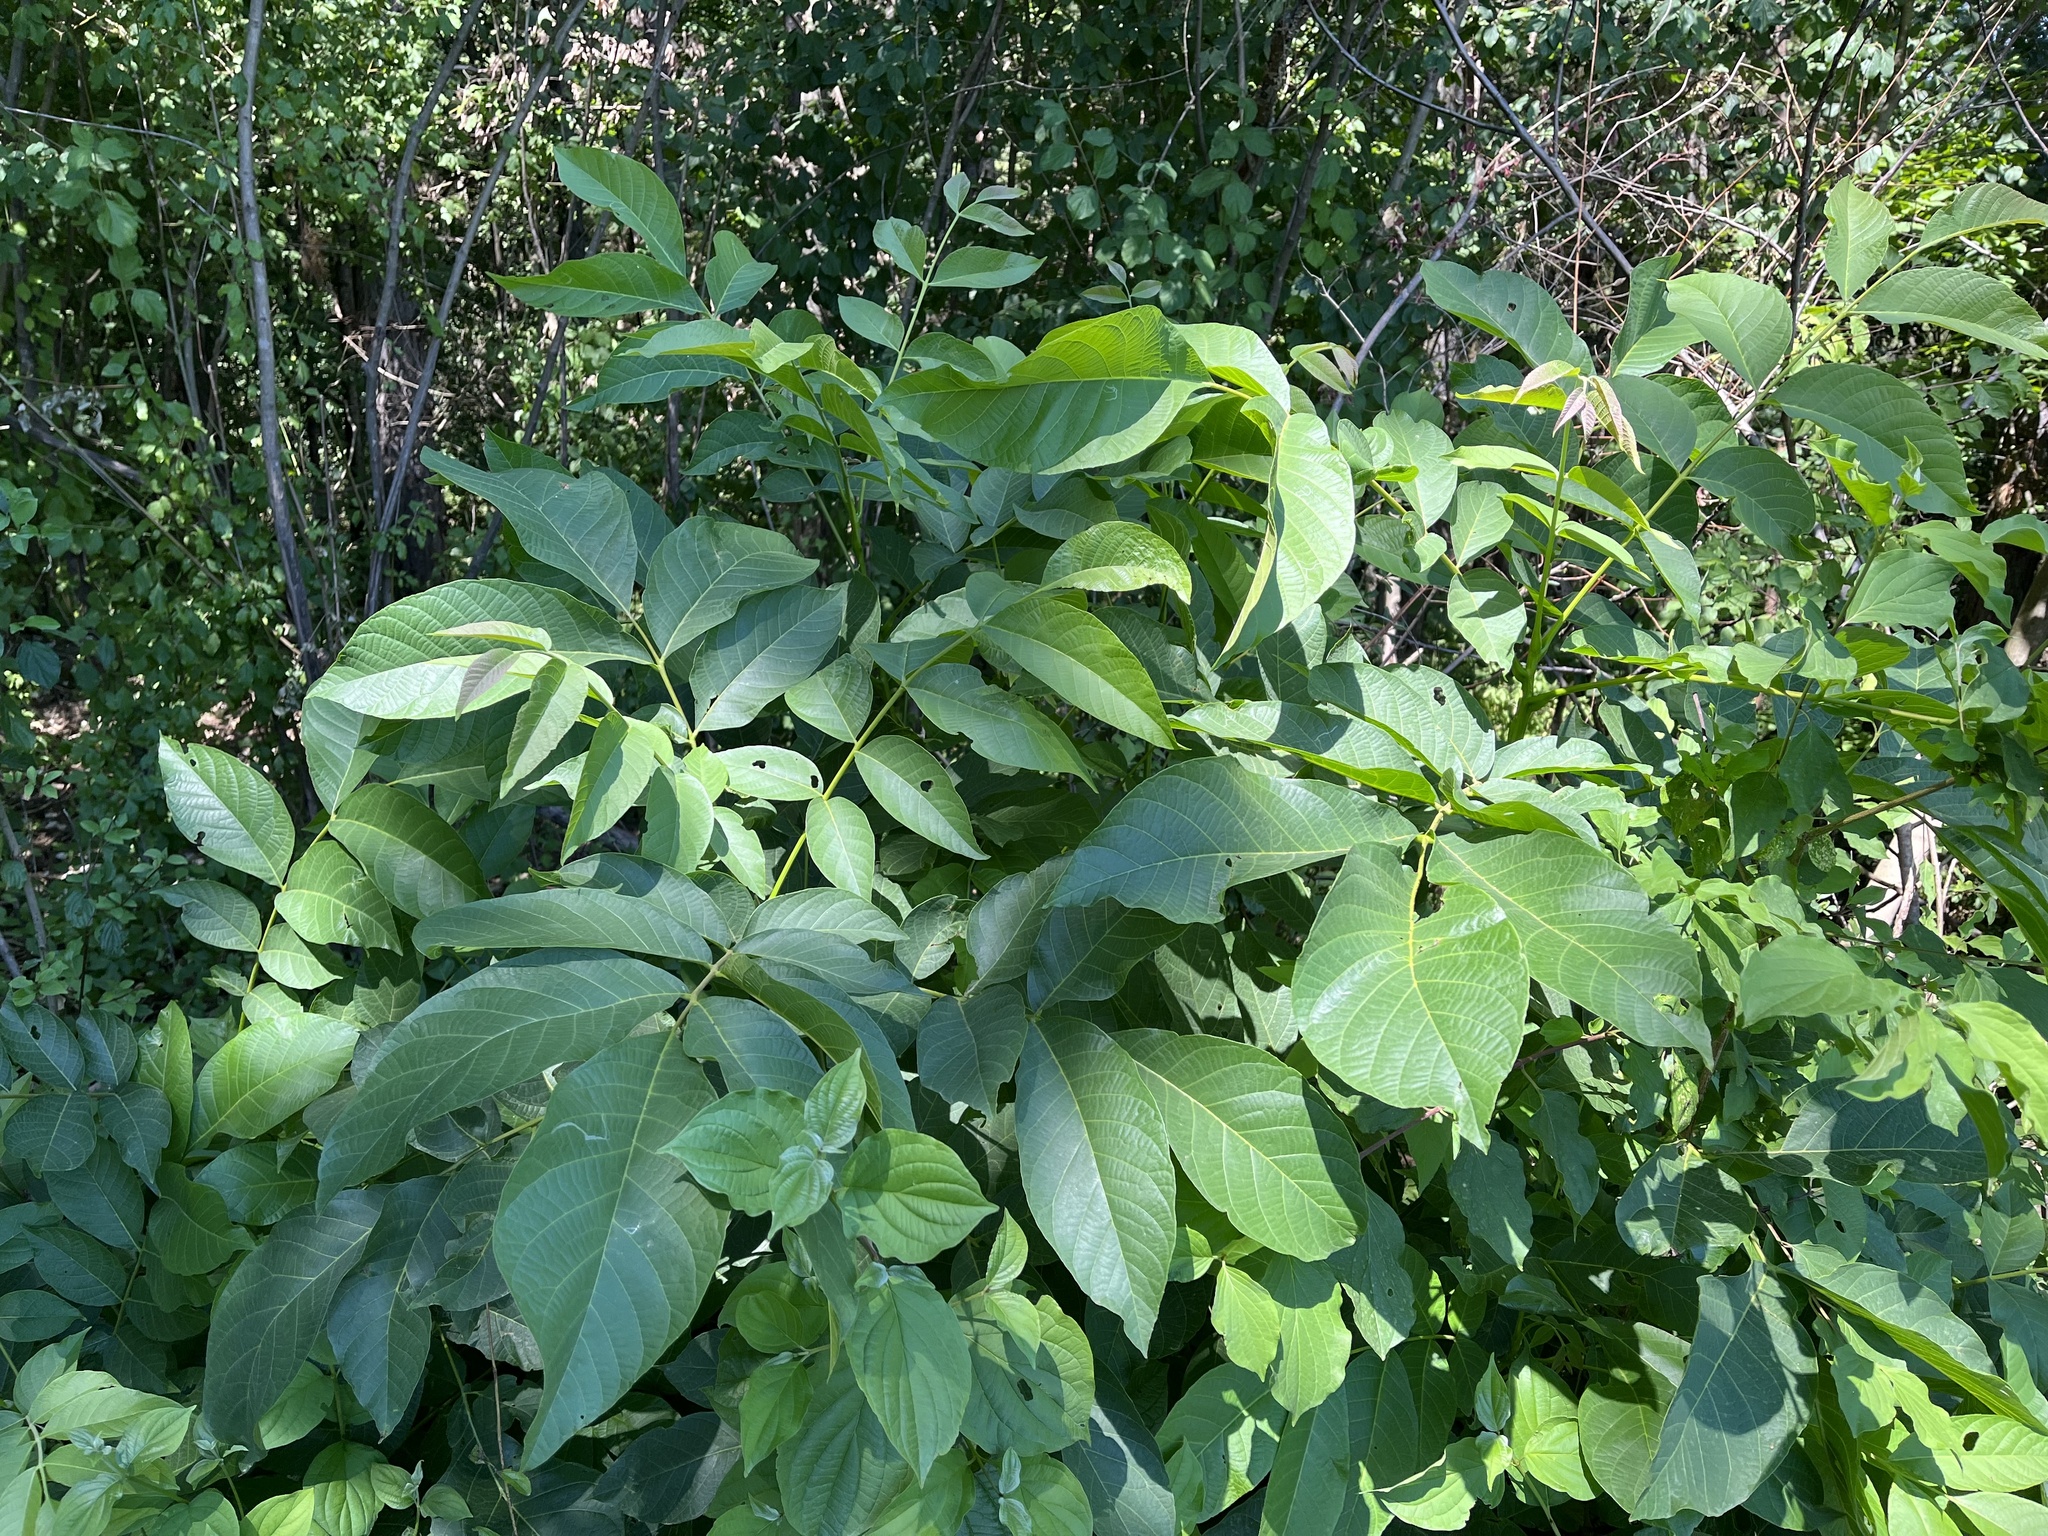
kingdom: Plantae
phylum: Tracheophyta
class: Magnoliopsida
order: Fagales
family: Juglandaceae
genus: Juglans
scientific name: Juglans regia
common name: Walnut
